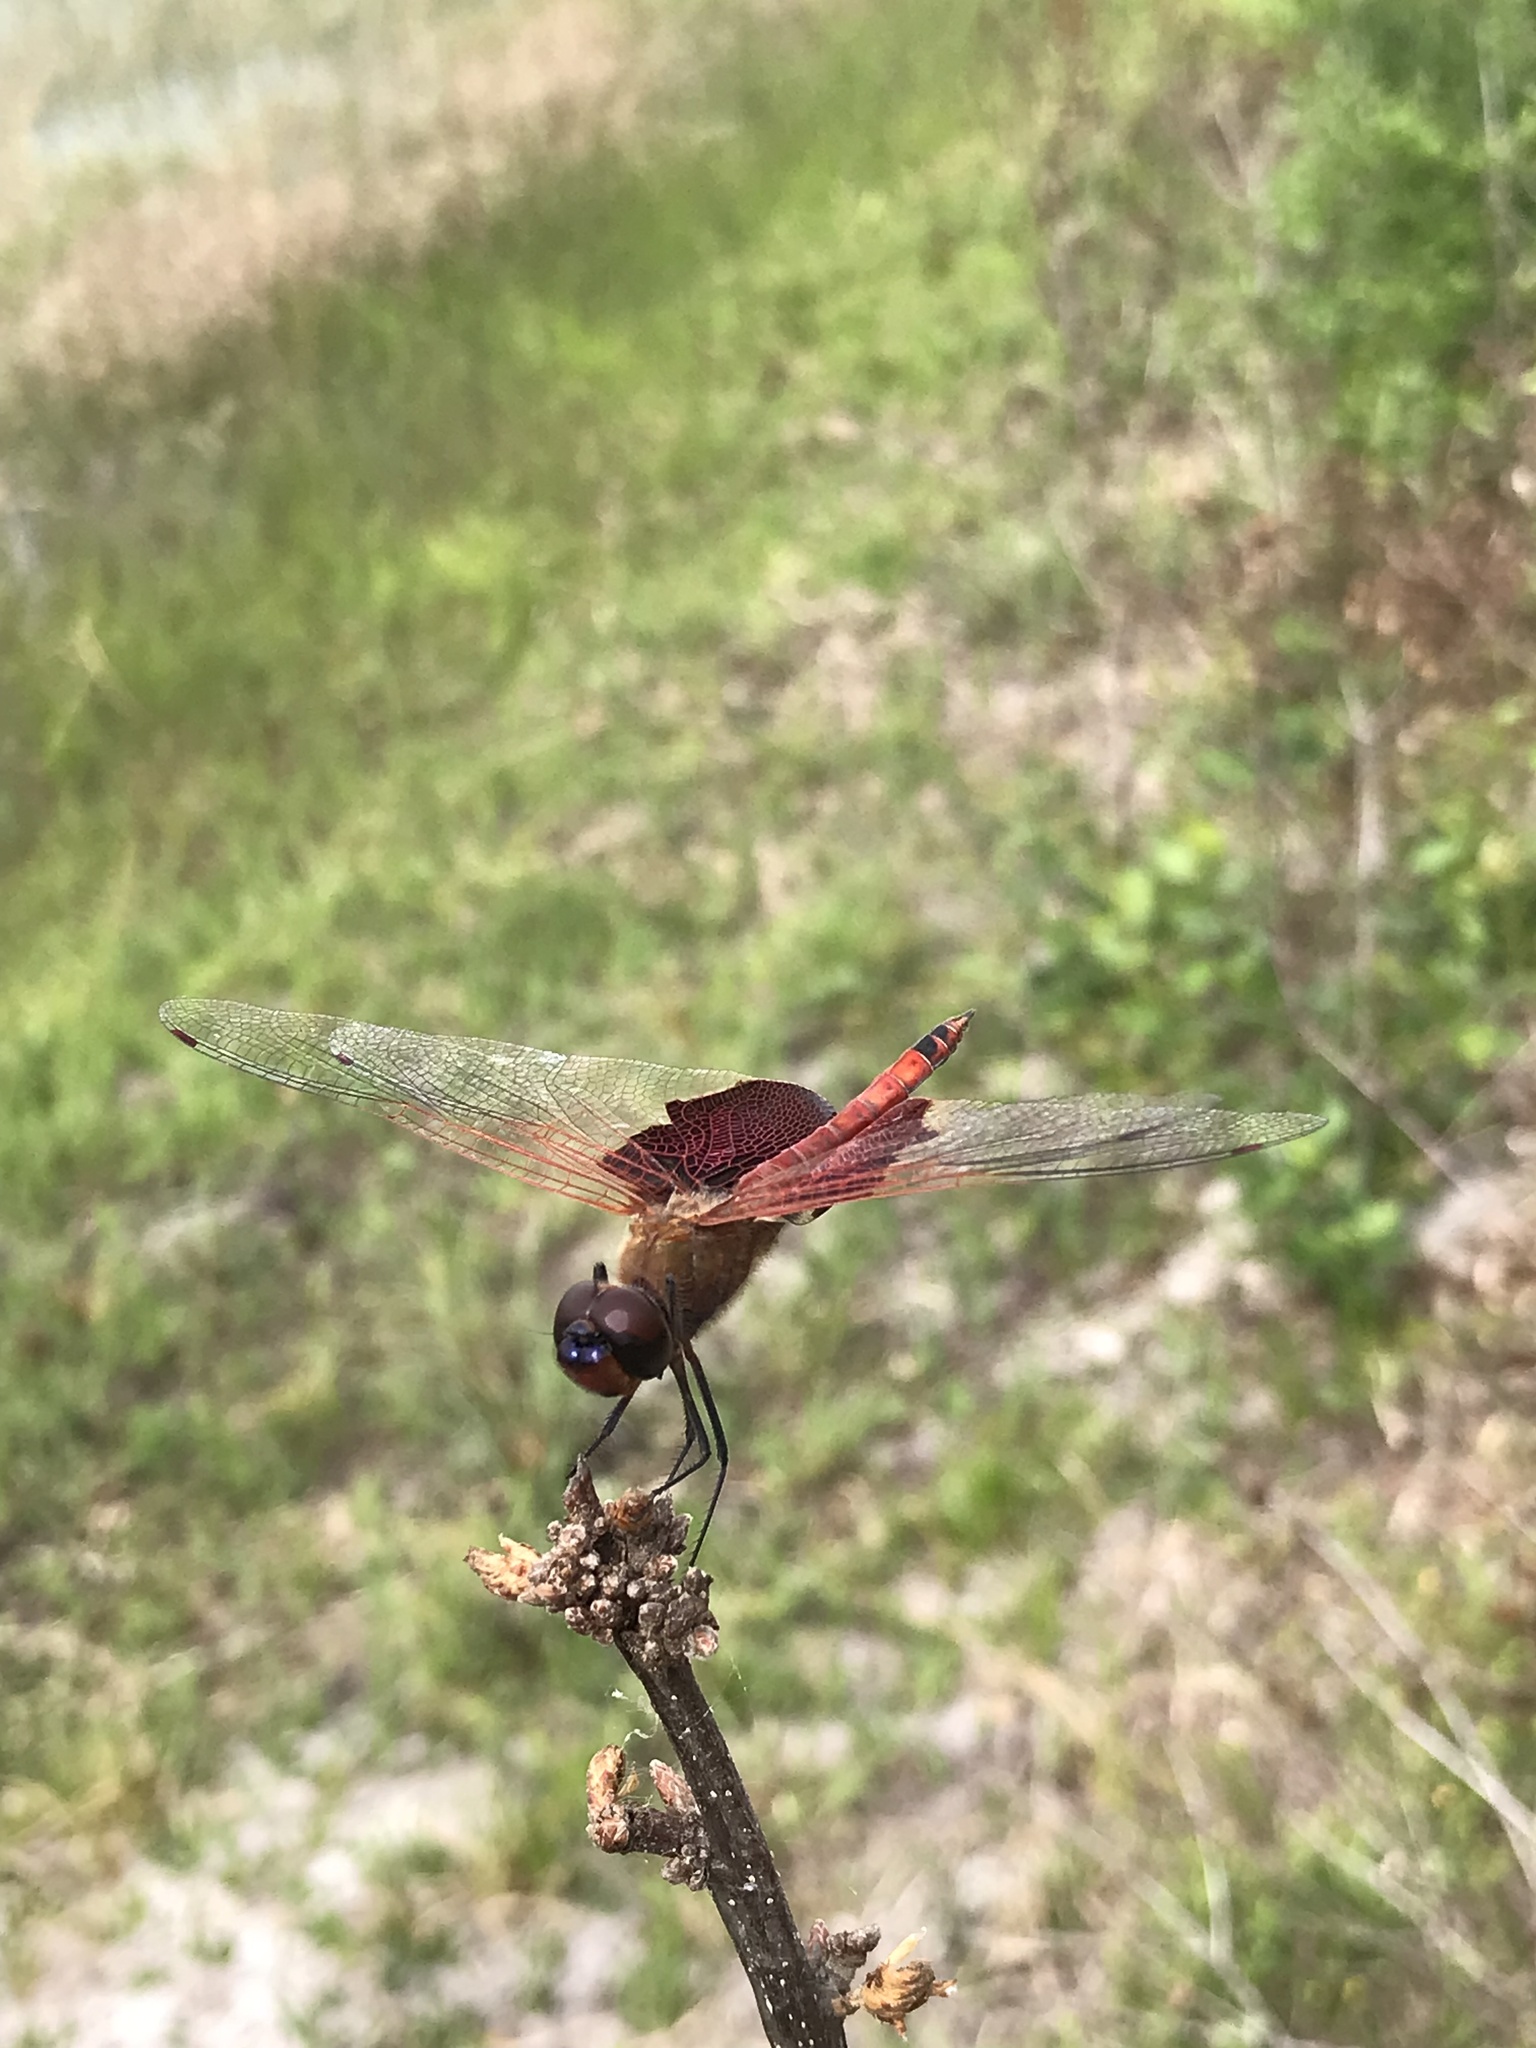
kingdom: Animalia
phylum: Arthropoda
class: Insecta
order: Odonata
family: Libellulidae
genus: Tramea
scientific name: Tramea carolina
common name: Carolina saddlebags
